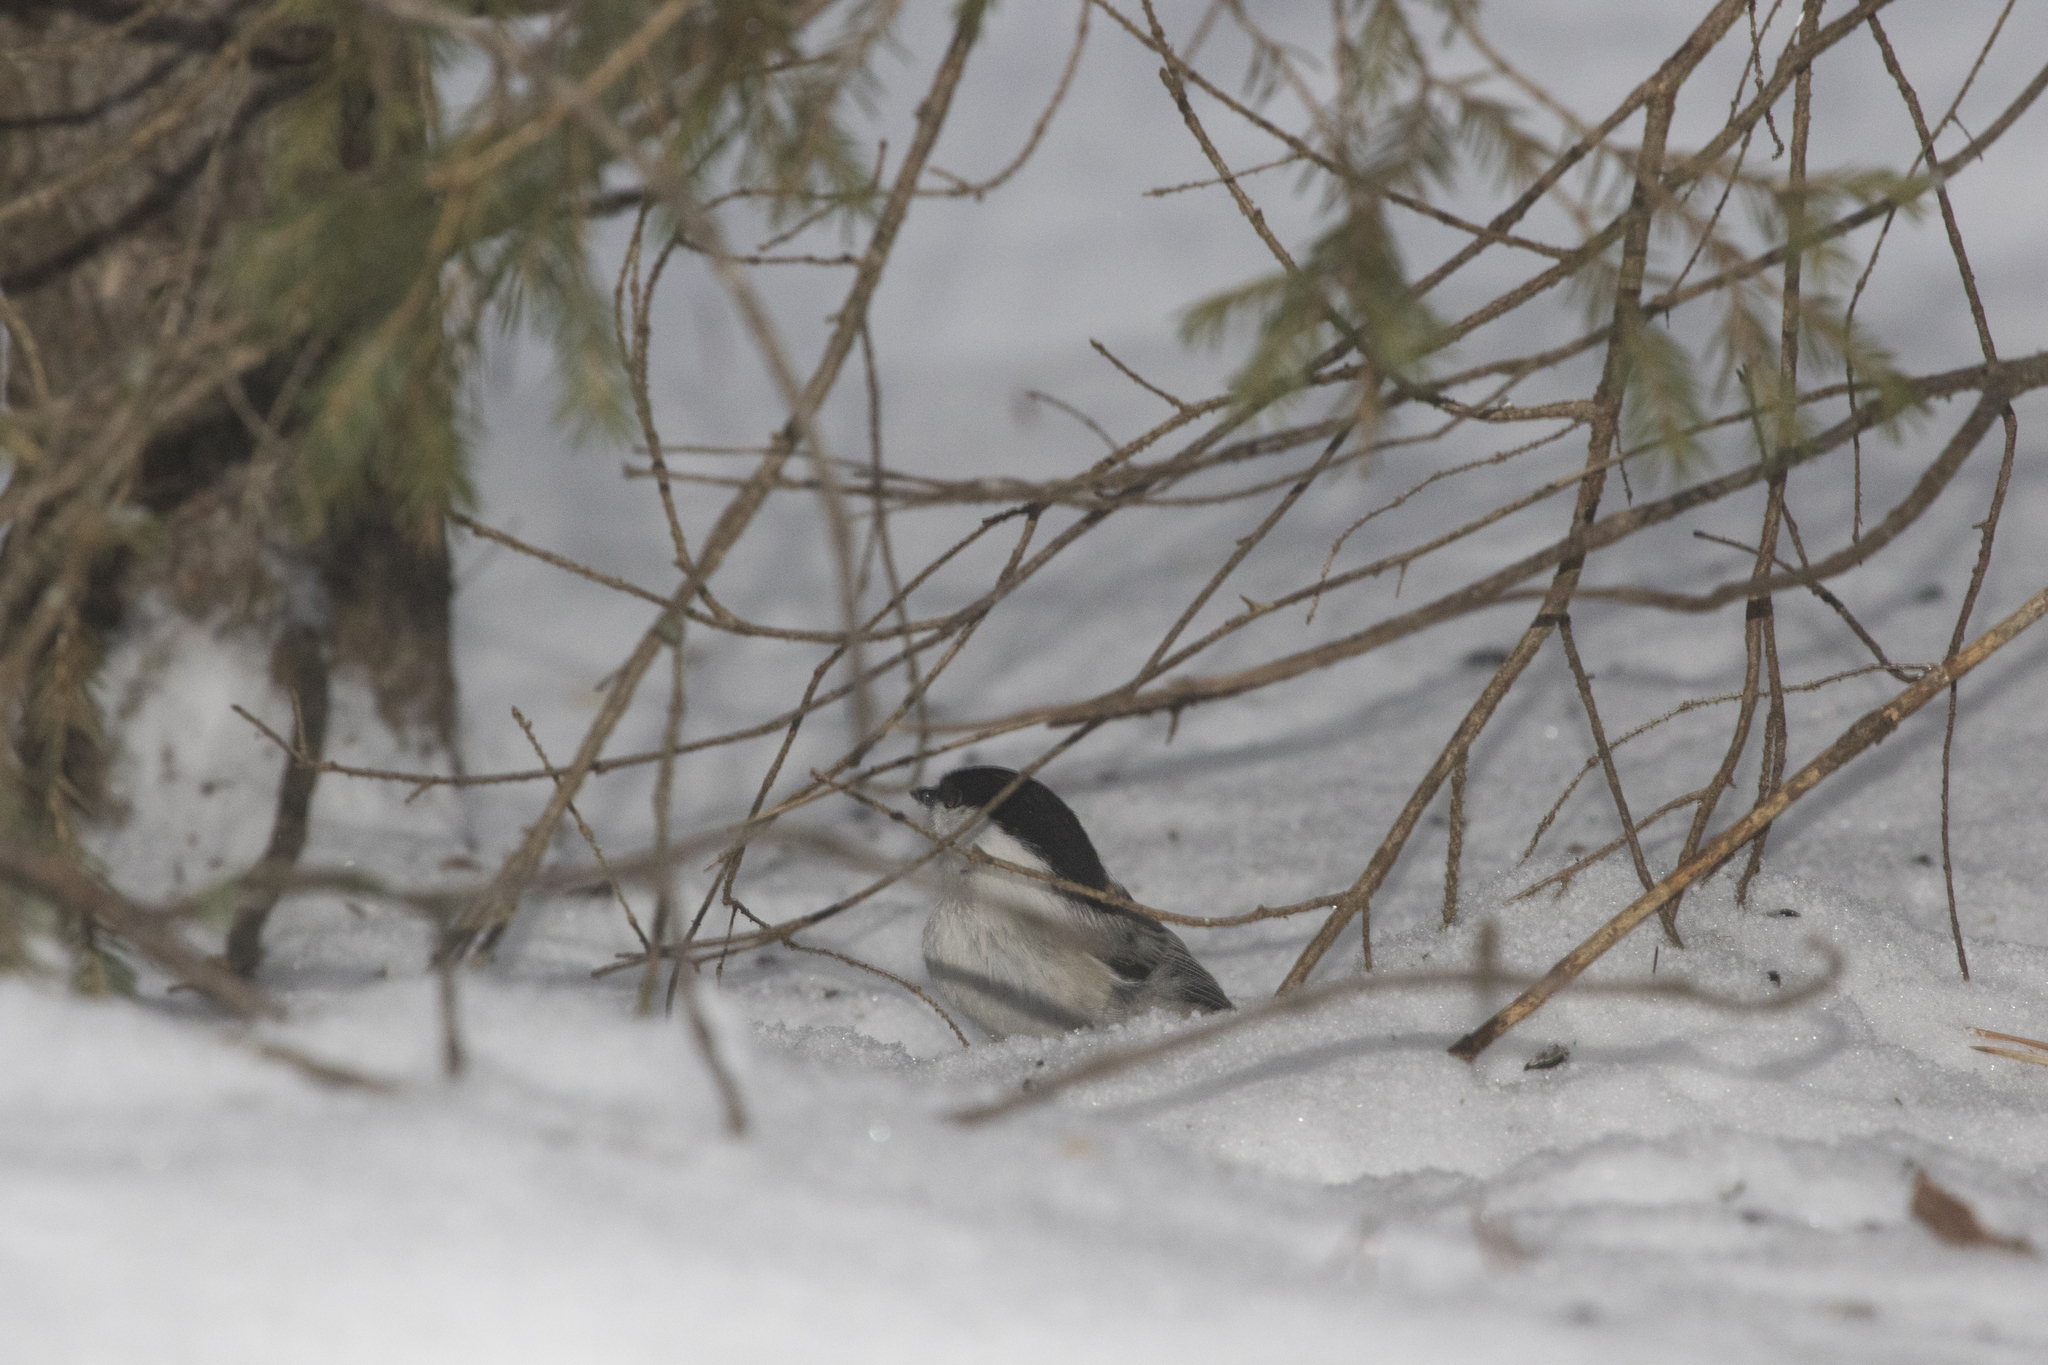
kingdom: Animalia
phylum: Chordata
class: Aves
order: Passeriformes
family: Paridae
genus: Poecile
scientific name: Poecile montanus
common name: Willow tit
